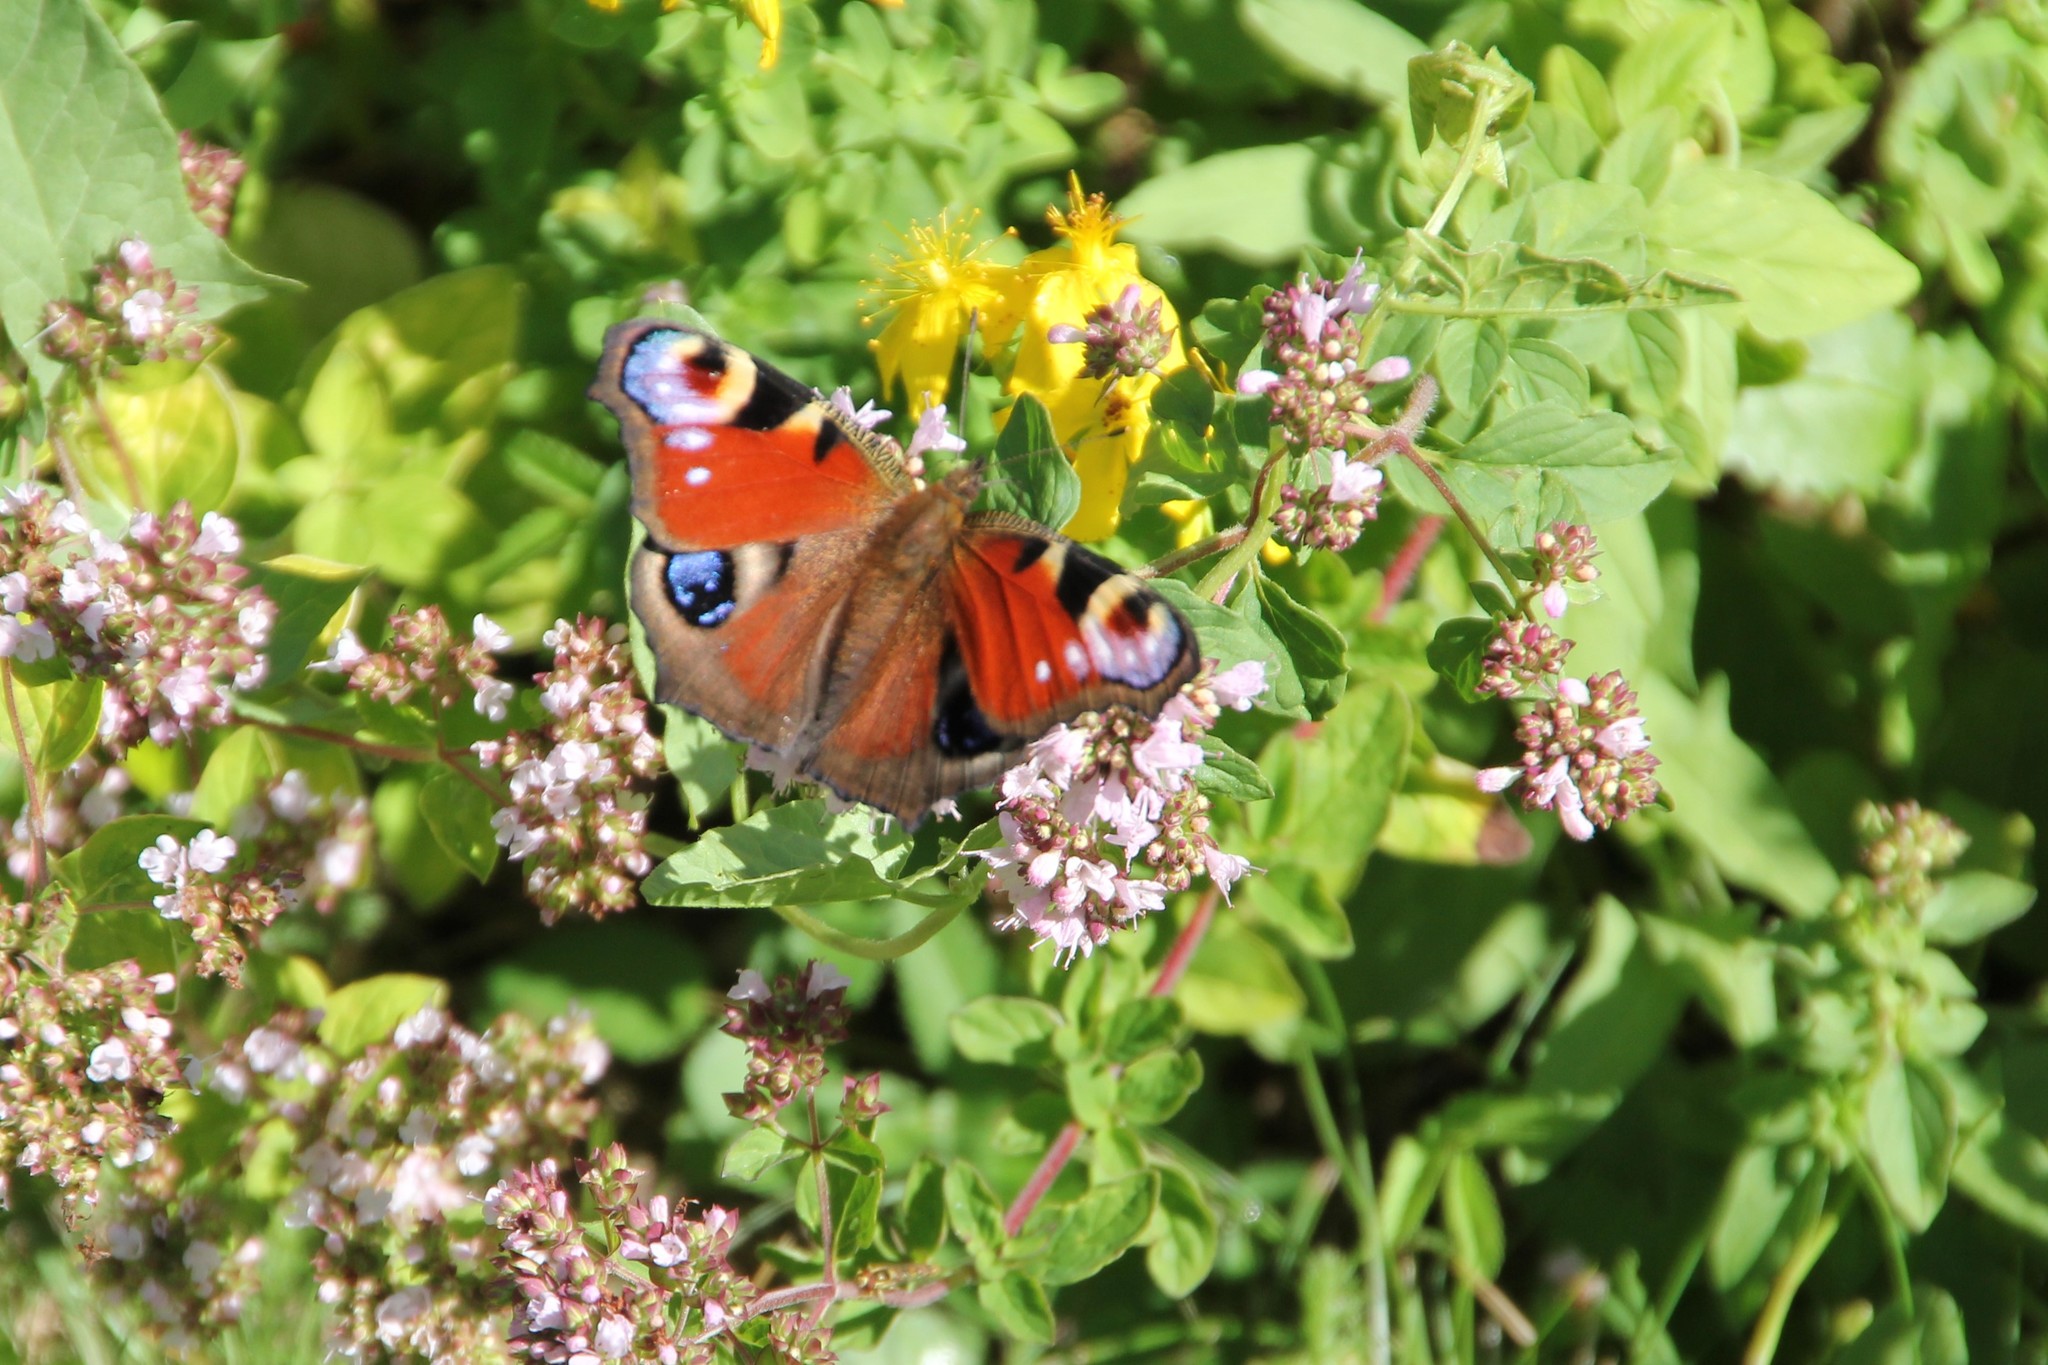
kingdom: Animalia
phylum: Arthropoda
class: Insecta
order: Lepidoptera
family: Nymphalidae
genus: Aglais
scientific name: Aglais io
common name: Peacock
